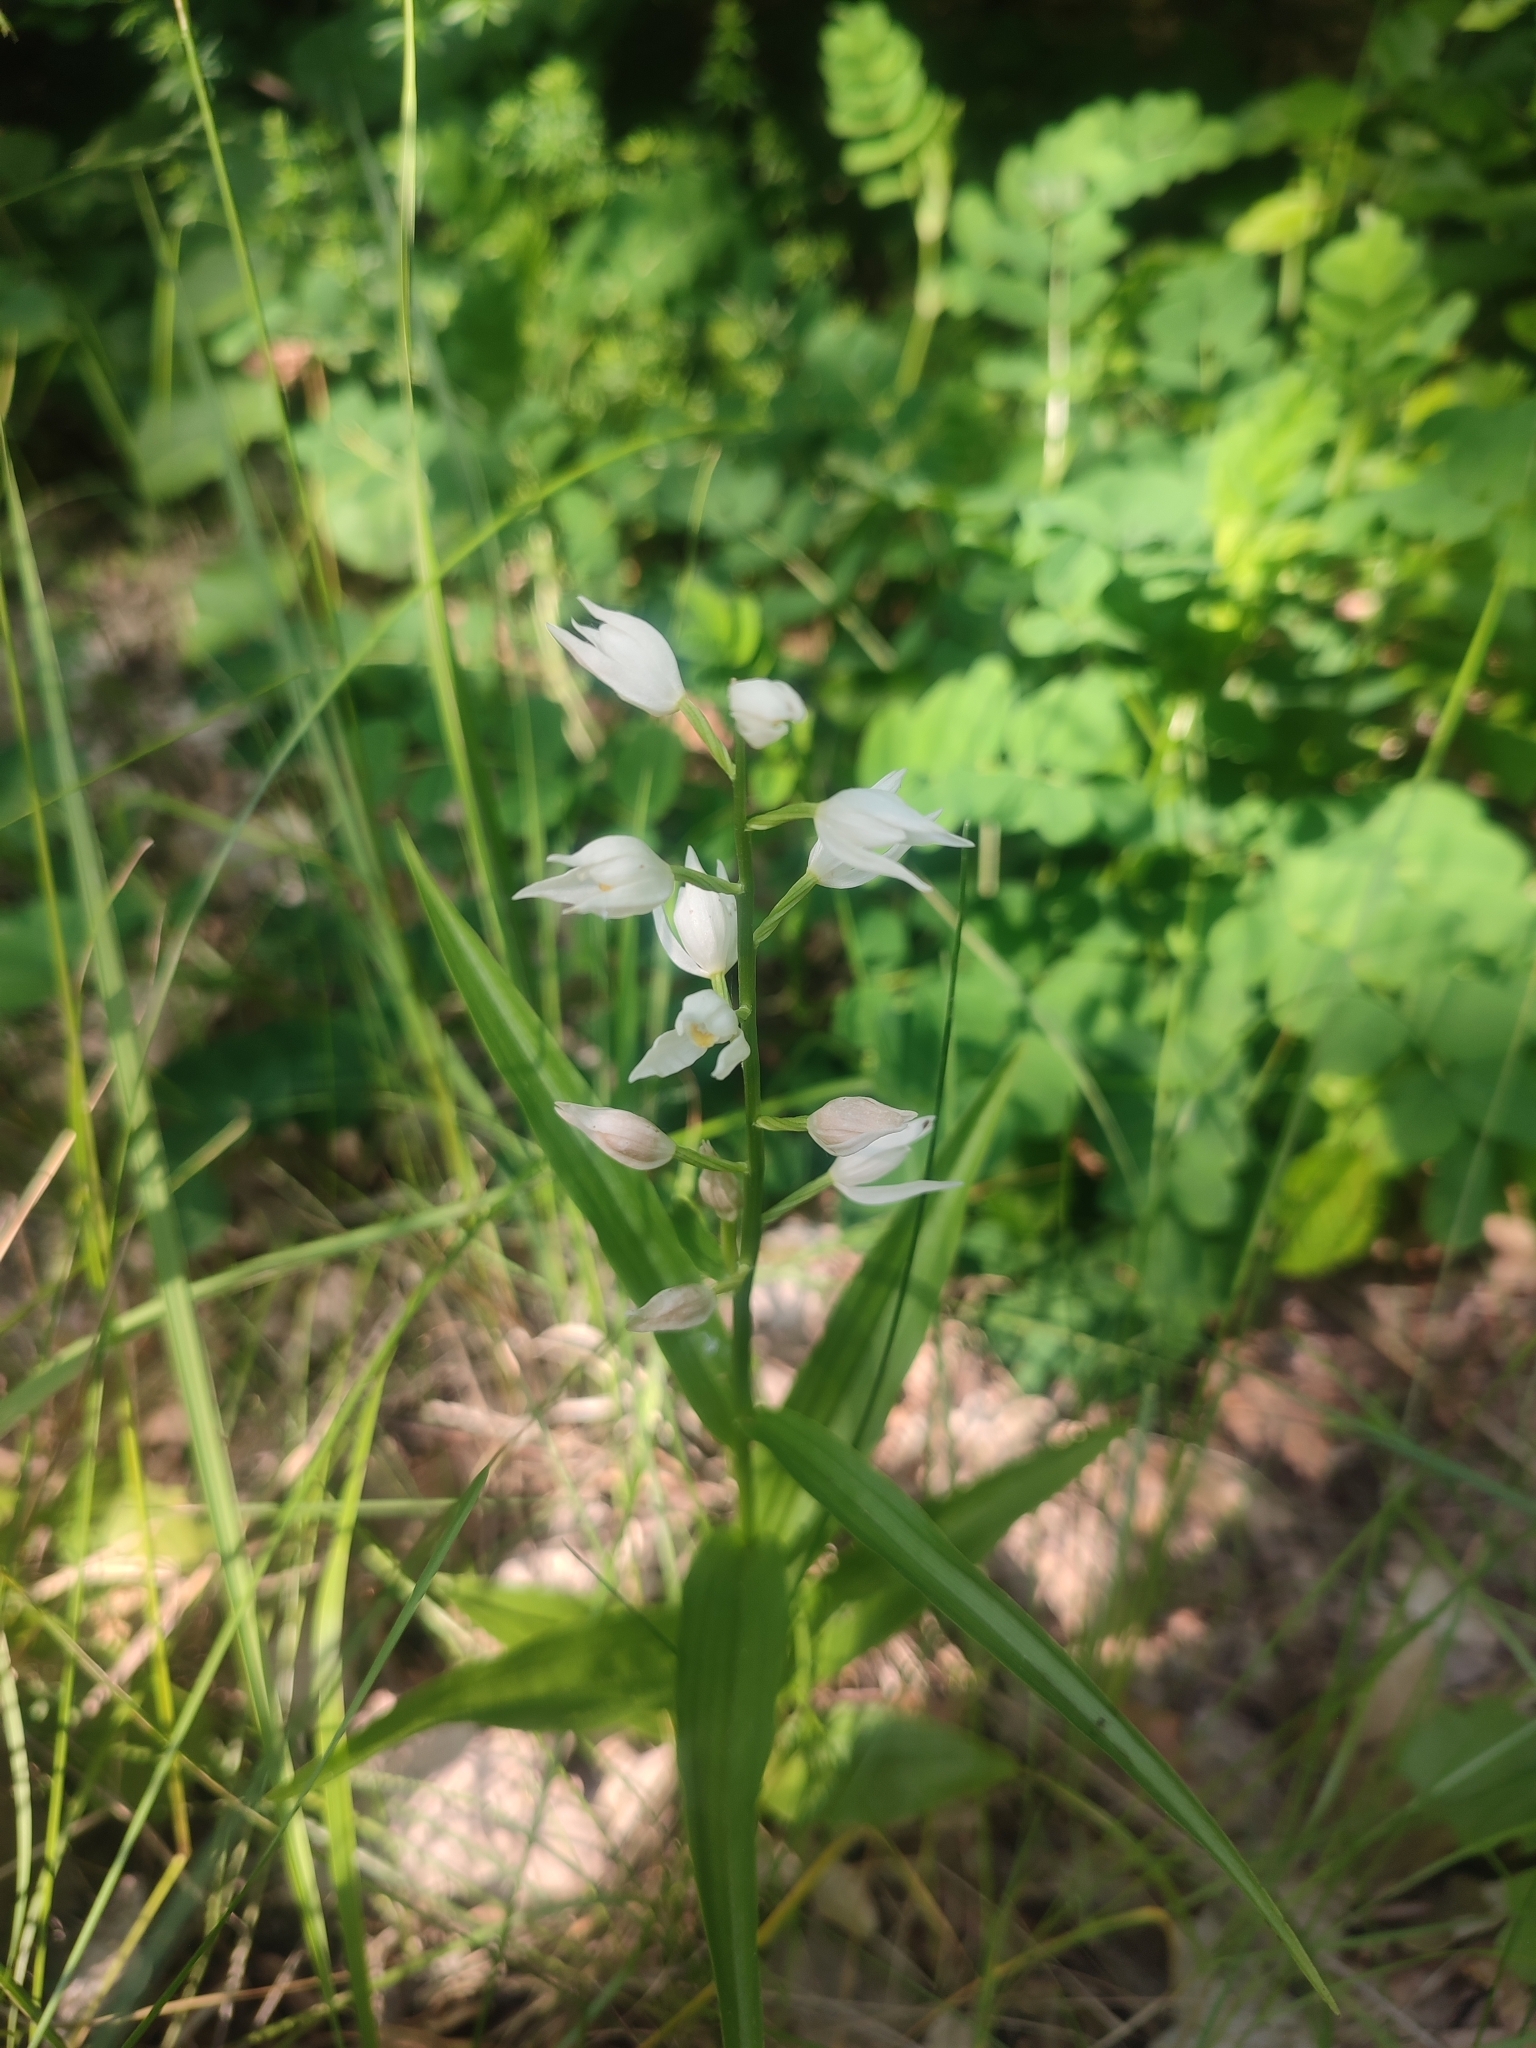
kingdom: Plantae
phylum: Tracheophyta
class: Liliopsida
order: Asparagales
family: Orchidaceae
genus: Cephalanthera
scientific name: Cephalanthera longifolia
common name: Narrow-leaved helleborine
